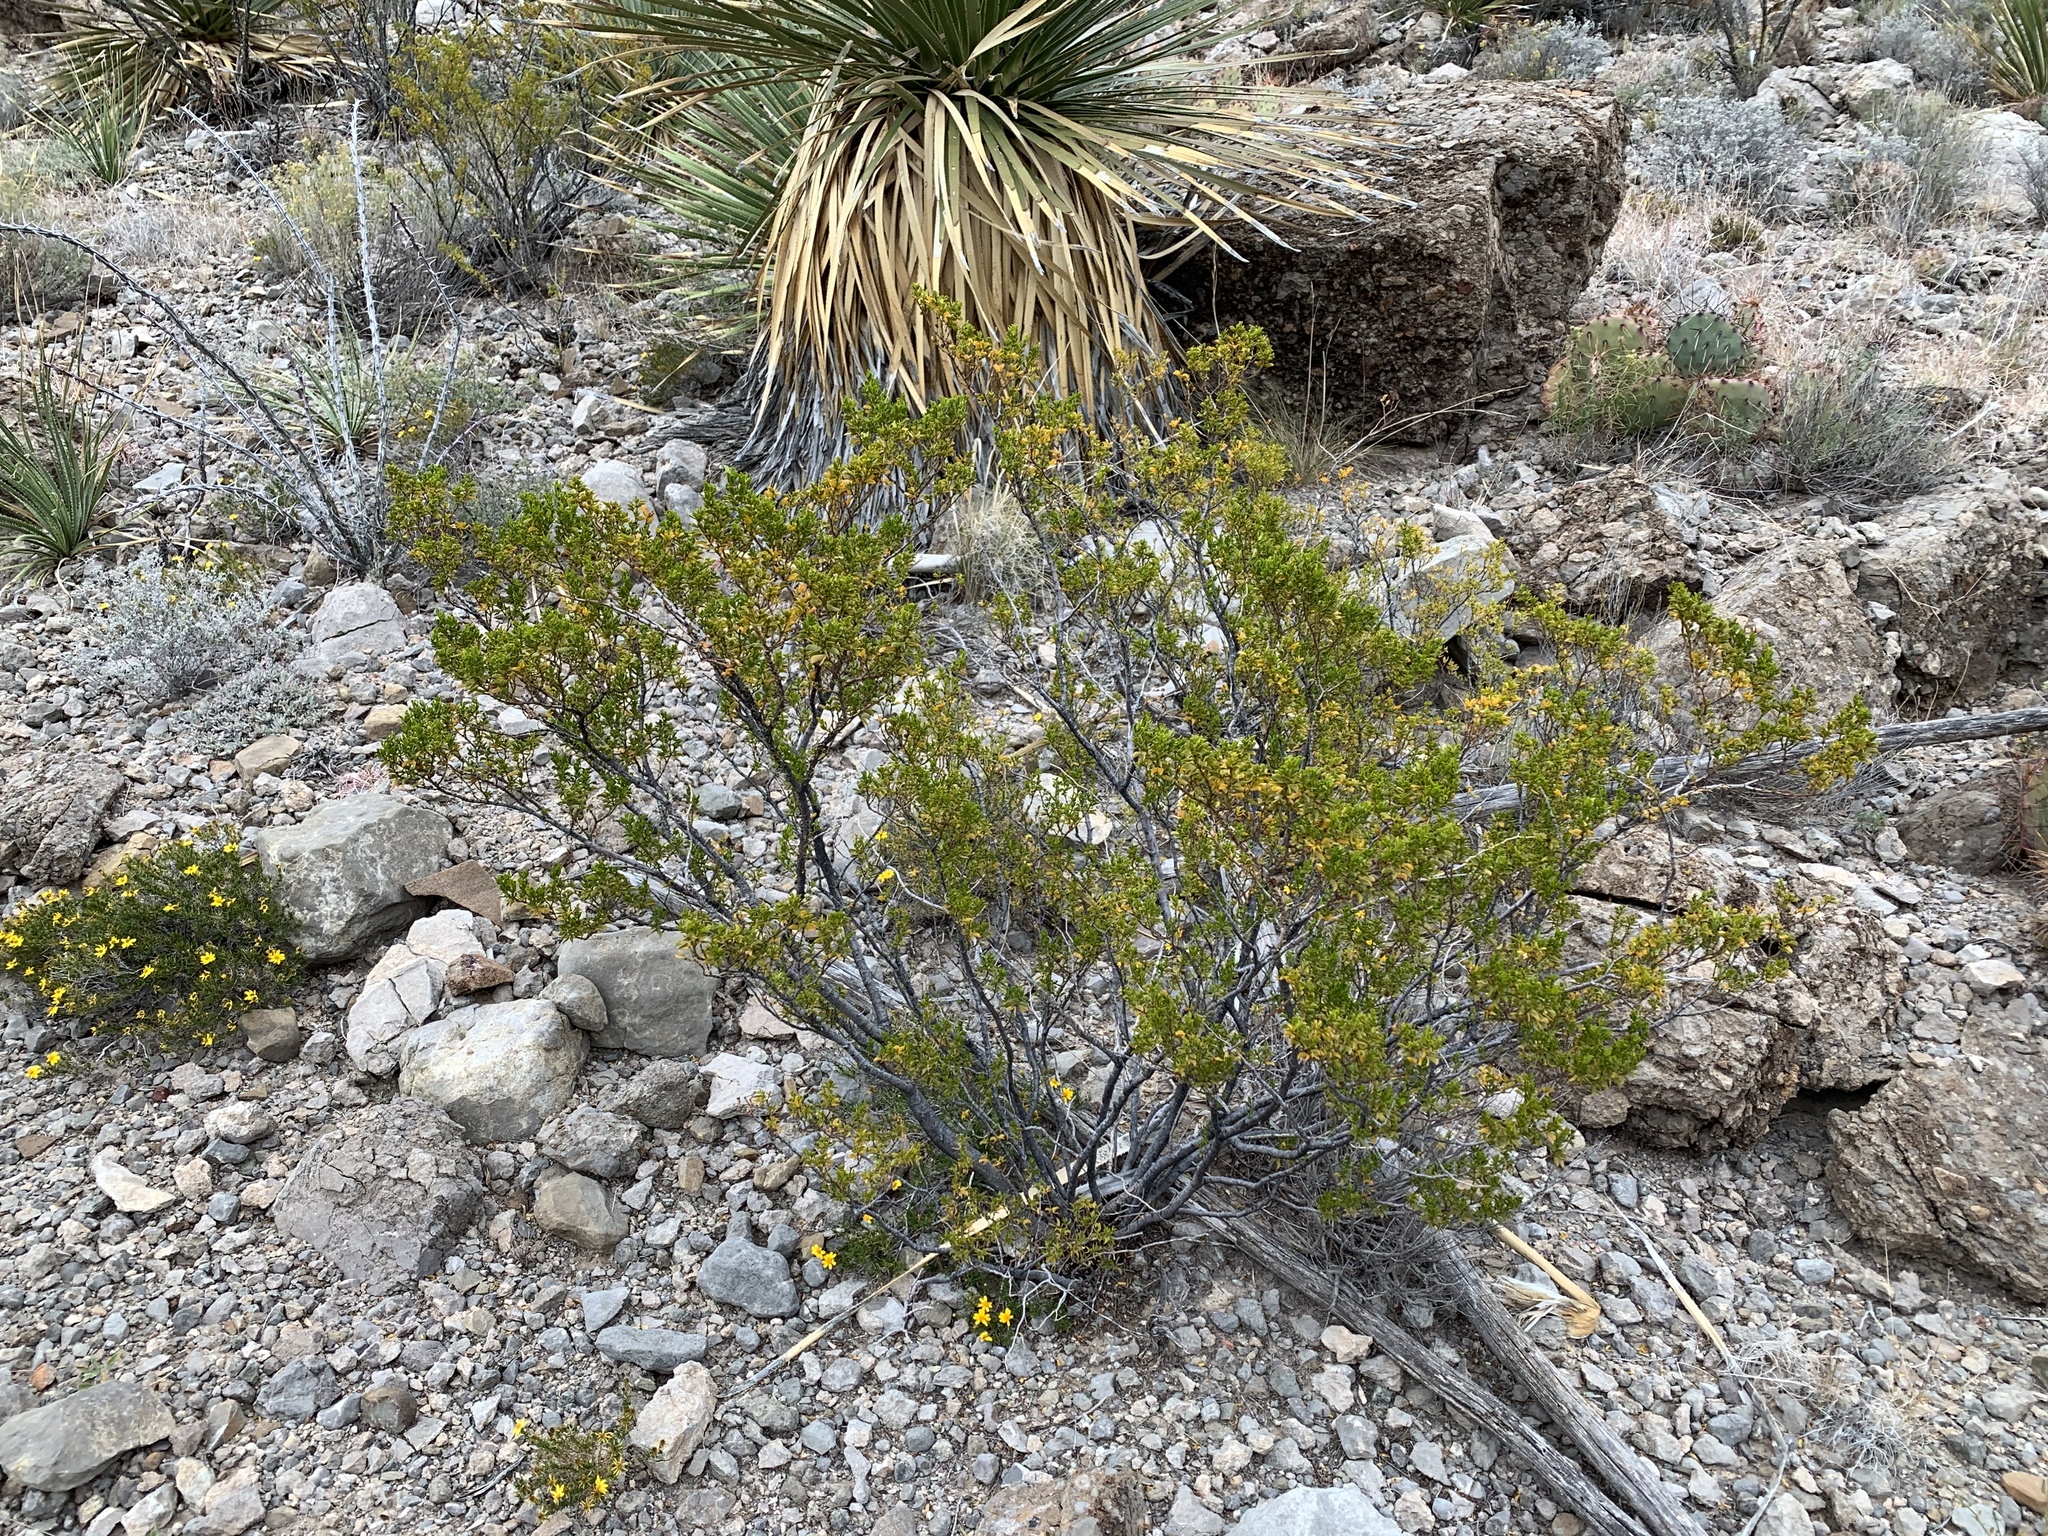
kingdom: Plantae
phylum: Tracheophyta
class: Magnoliopsida
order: Zygophyllales
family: Zygophyllaceae
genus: Larrea
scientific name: Larrea tridentata
